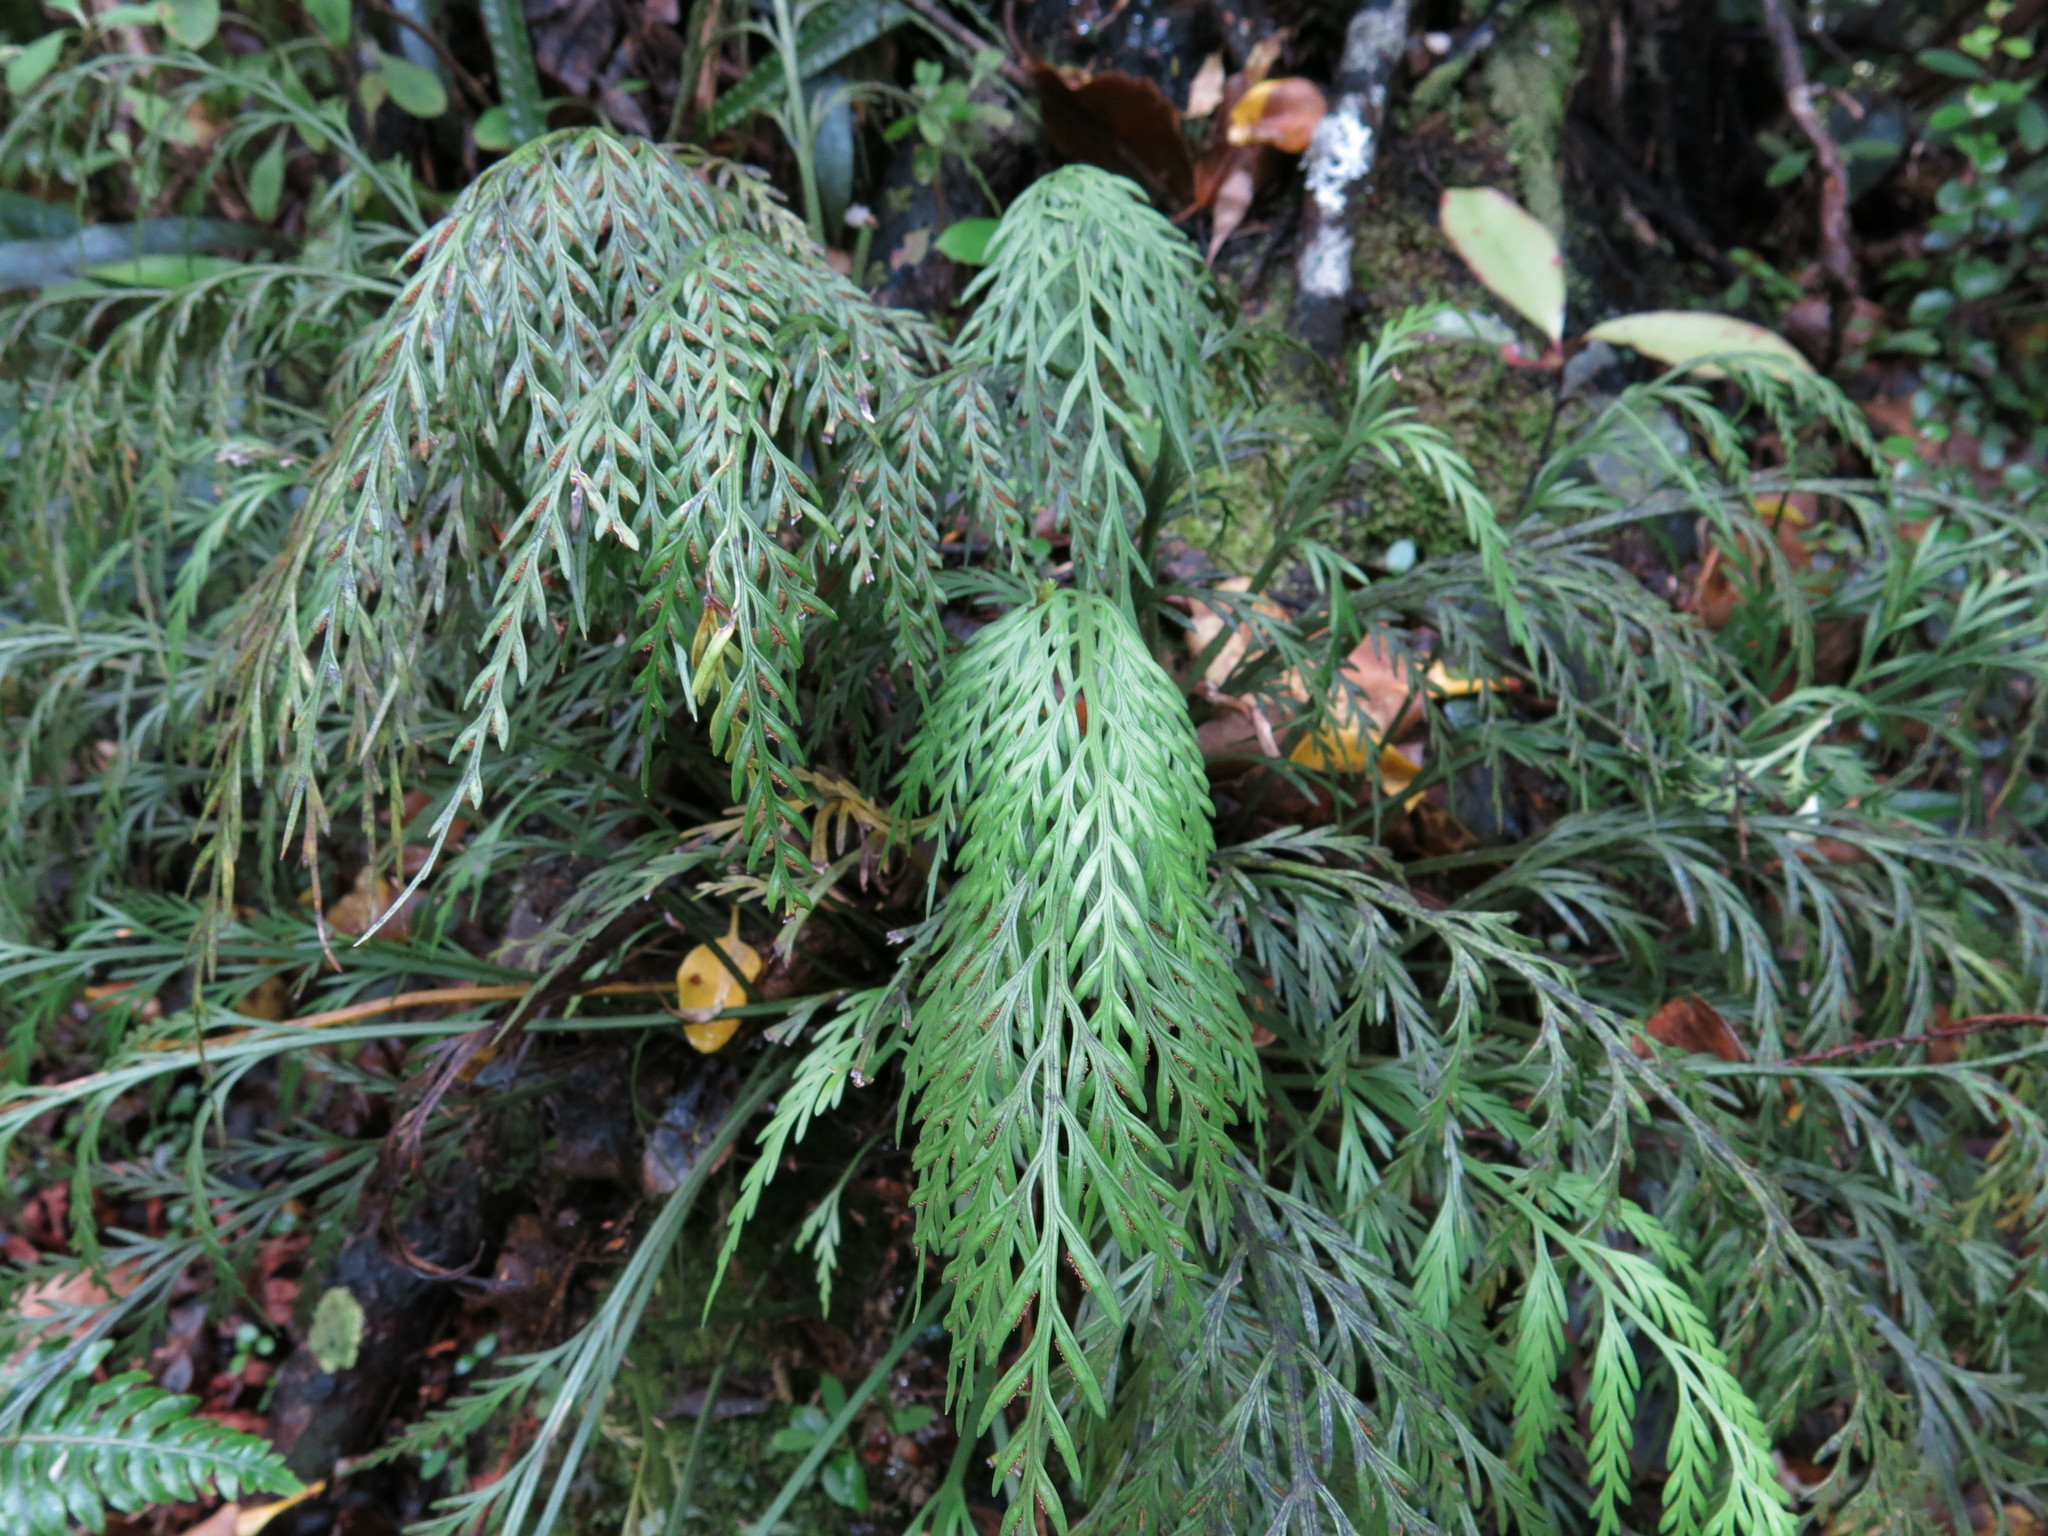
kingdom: Plantae
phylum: Tracheophyta
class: Polypodiopsida
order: Polypodiales
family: Aspleniaceae
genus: Asplenium
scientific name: Asplenium flaccidum
